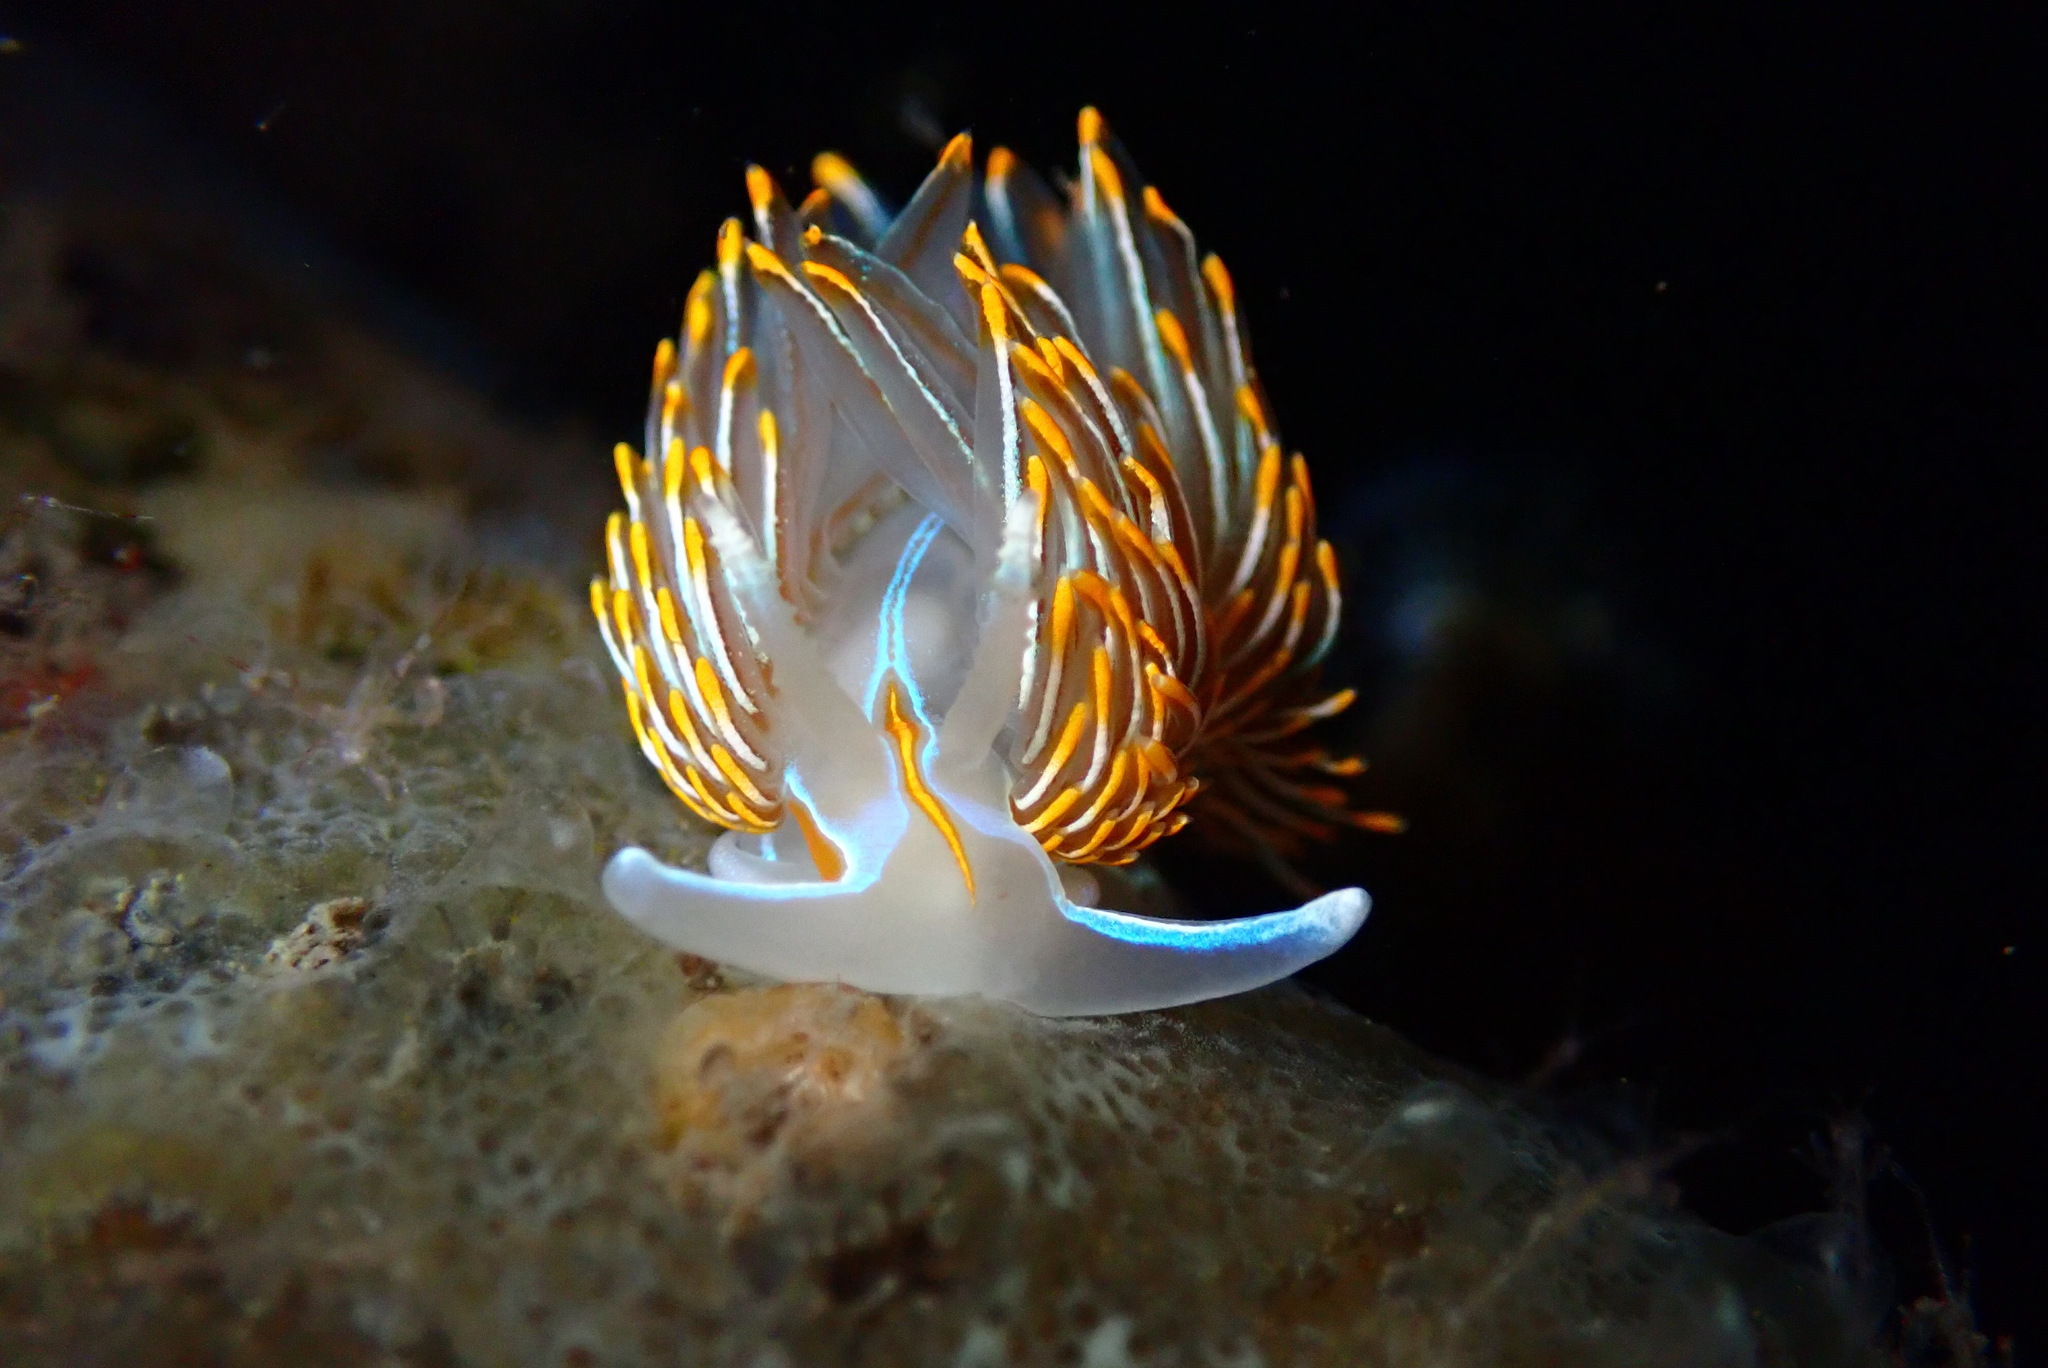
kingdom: Animalia
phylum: Mollusca
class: Gastropoda
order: Nudibranchia
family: Myrrhinidae
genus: Hermissenda
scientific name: Hermissenda crassicornis
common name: Hermissenda
